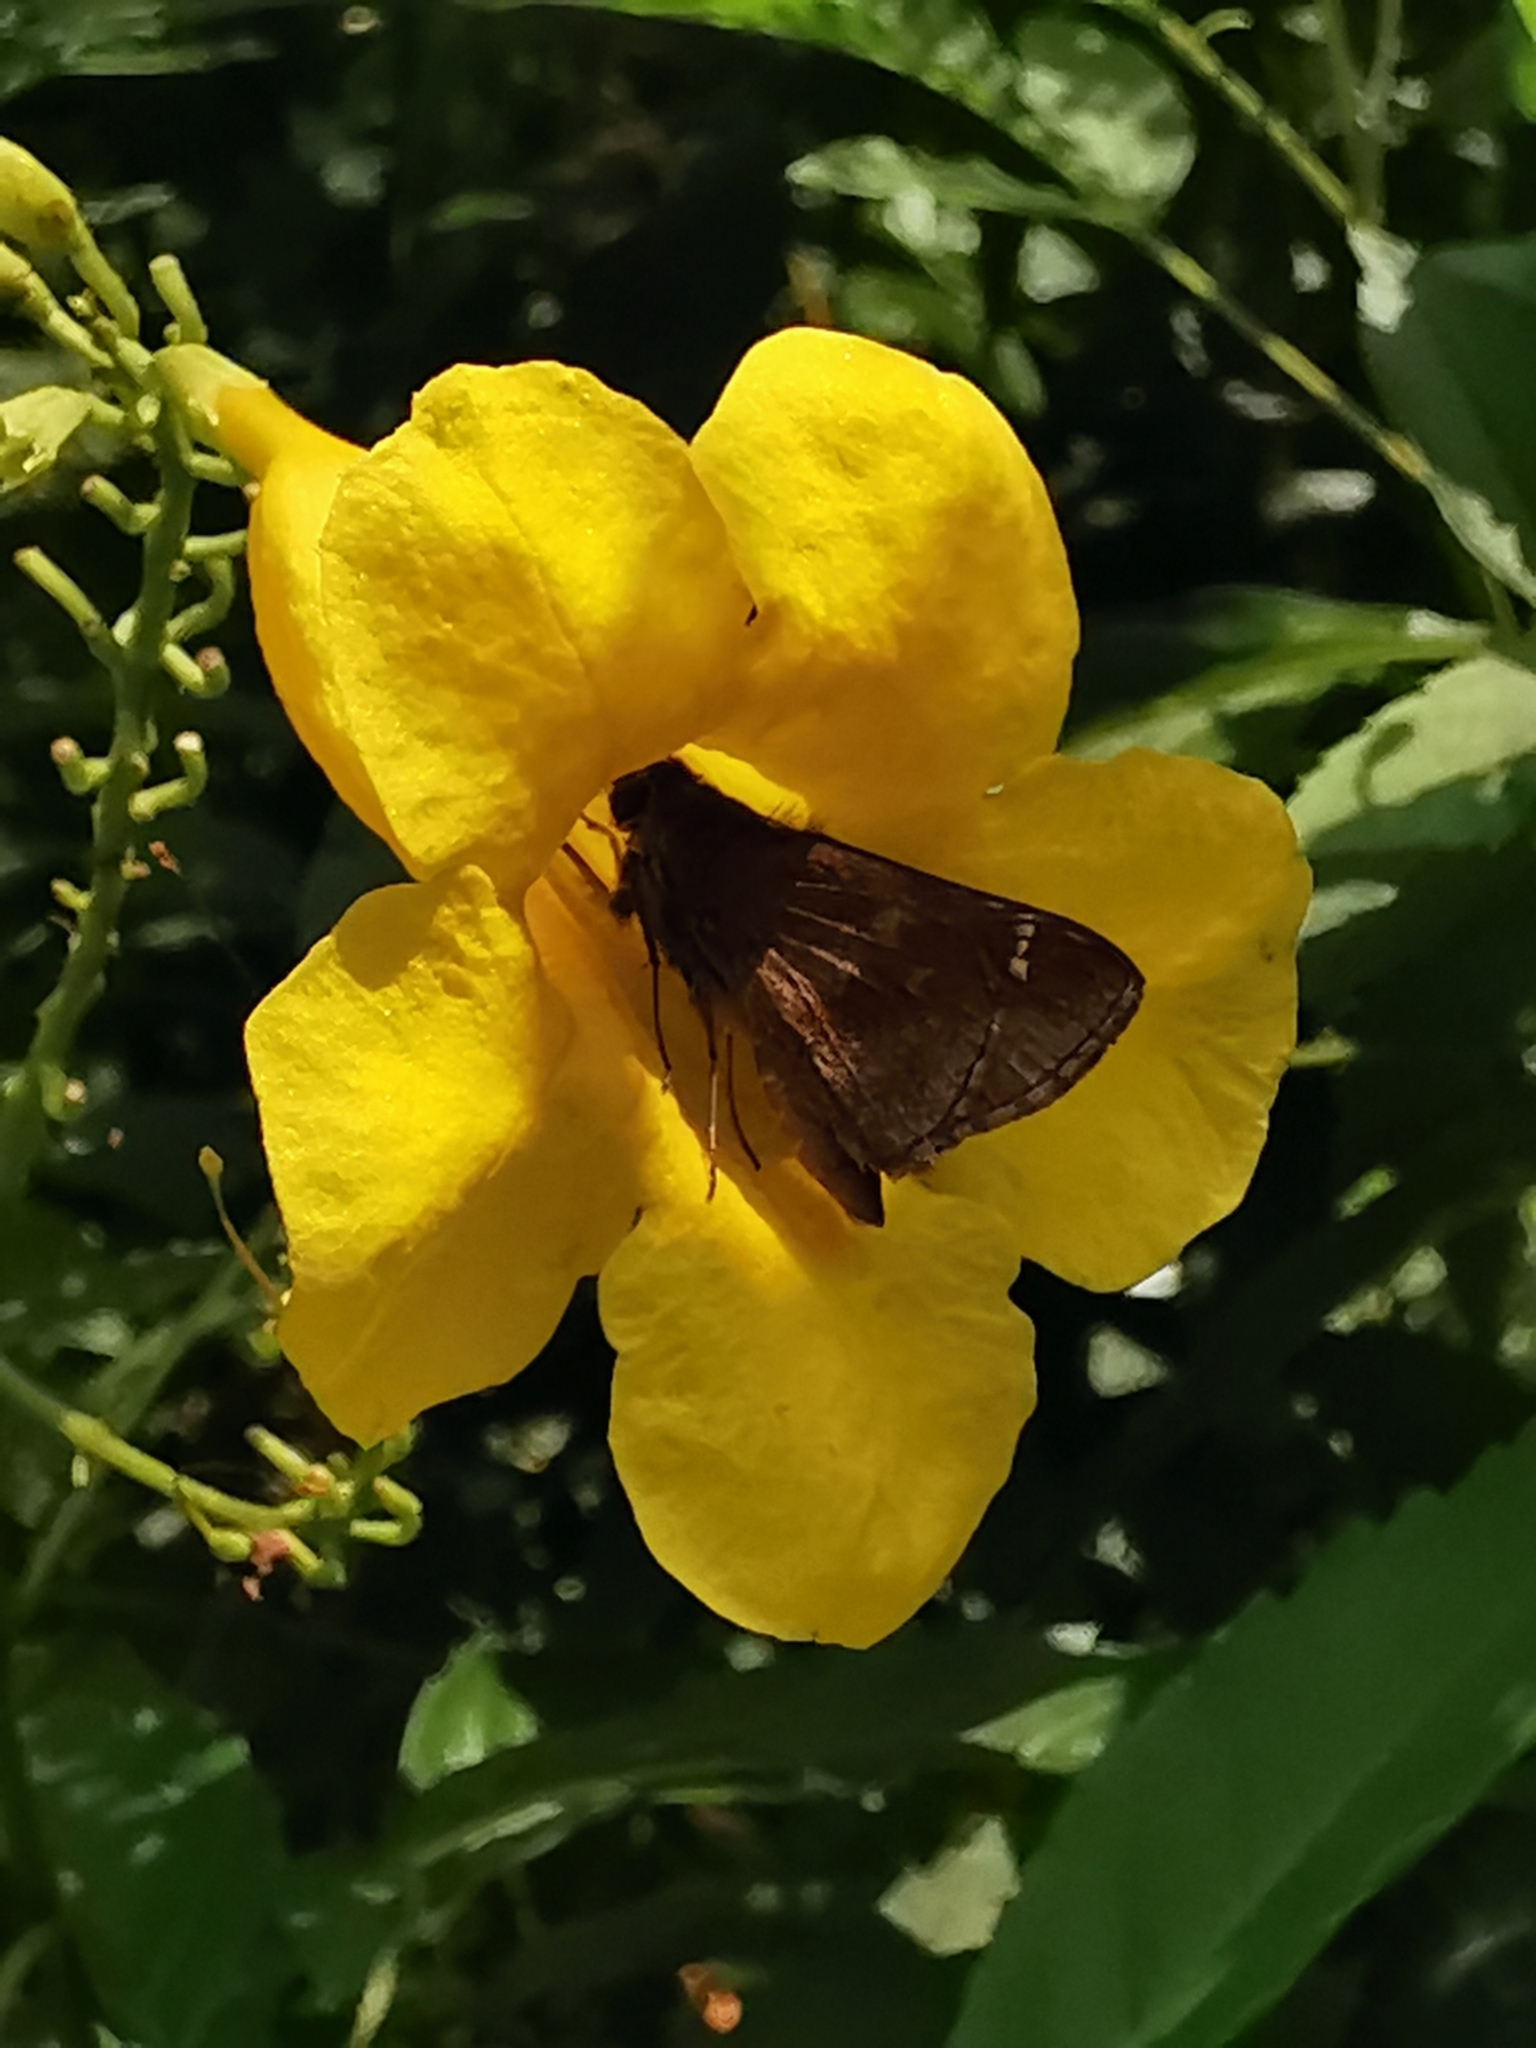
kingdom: Animalia
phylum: Arthropoda
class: Insecta
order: Lepidoptera
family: Hesperiidae
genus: Lerema
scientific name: Lerema accius
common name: Clouded skipper
